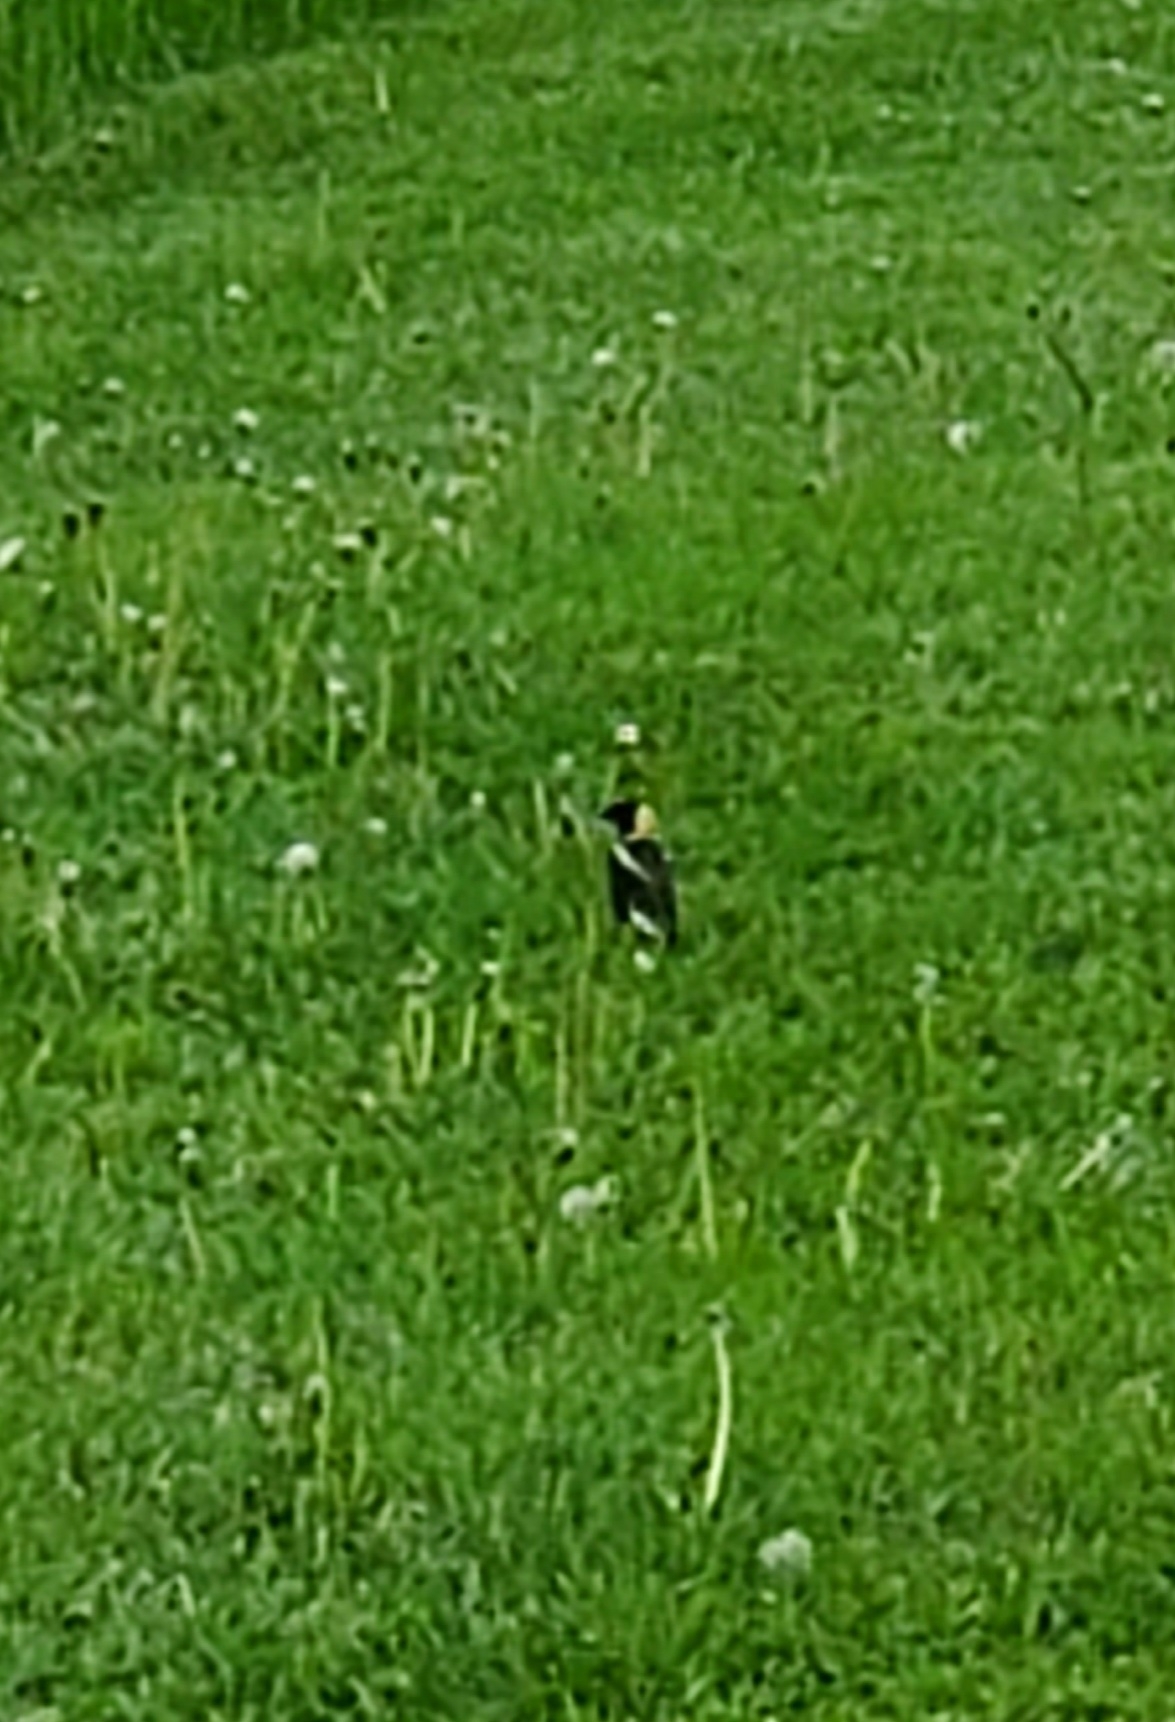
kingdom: Animalia
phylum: Chordata
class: Aves
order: Passeriformes
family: Icteridae
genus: Dolichonyx
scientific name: Dolichonyx oryzivorus
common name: Bobolink
